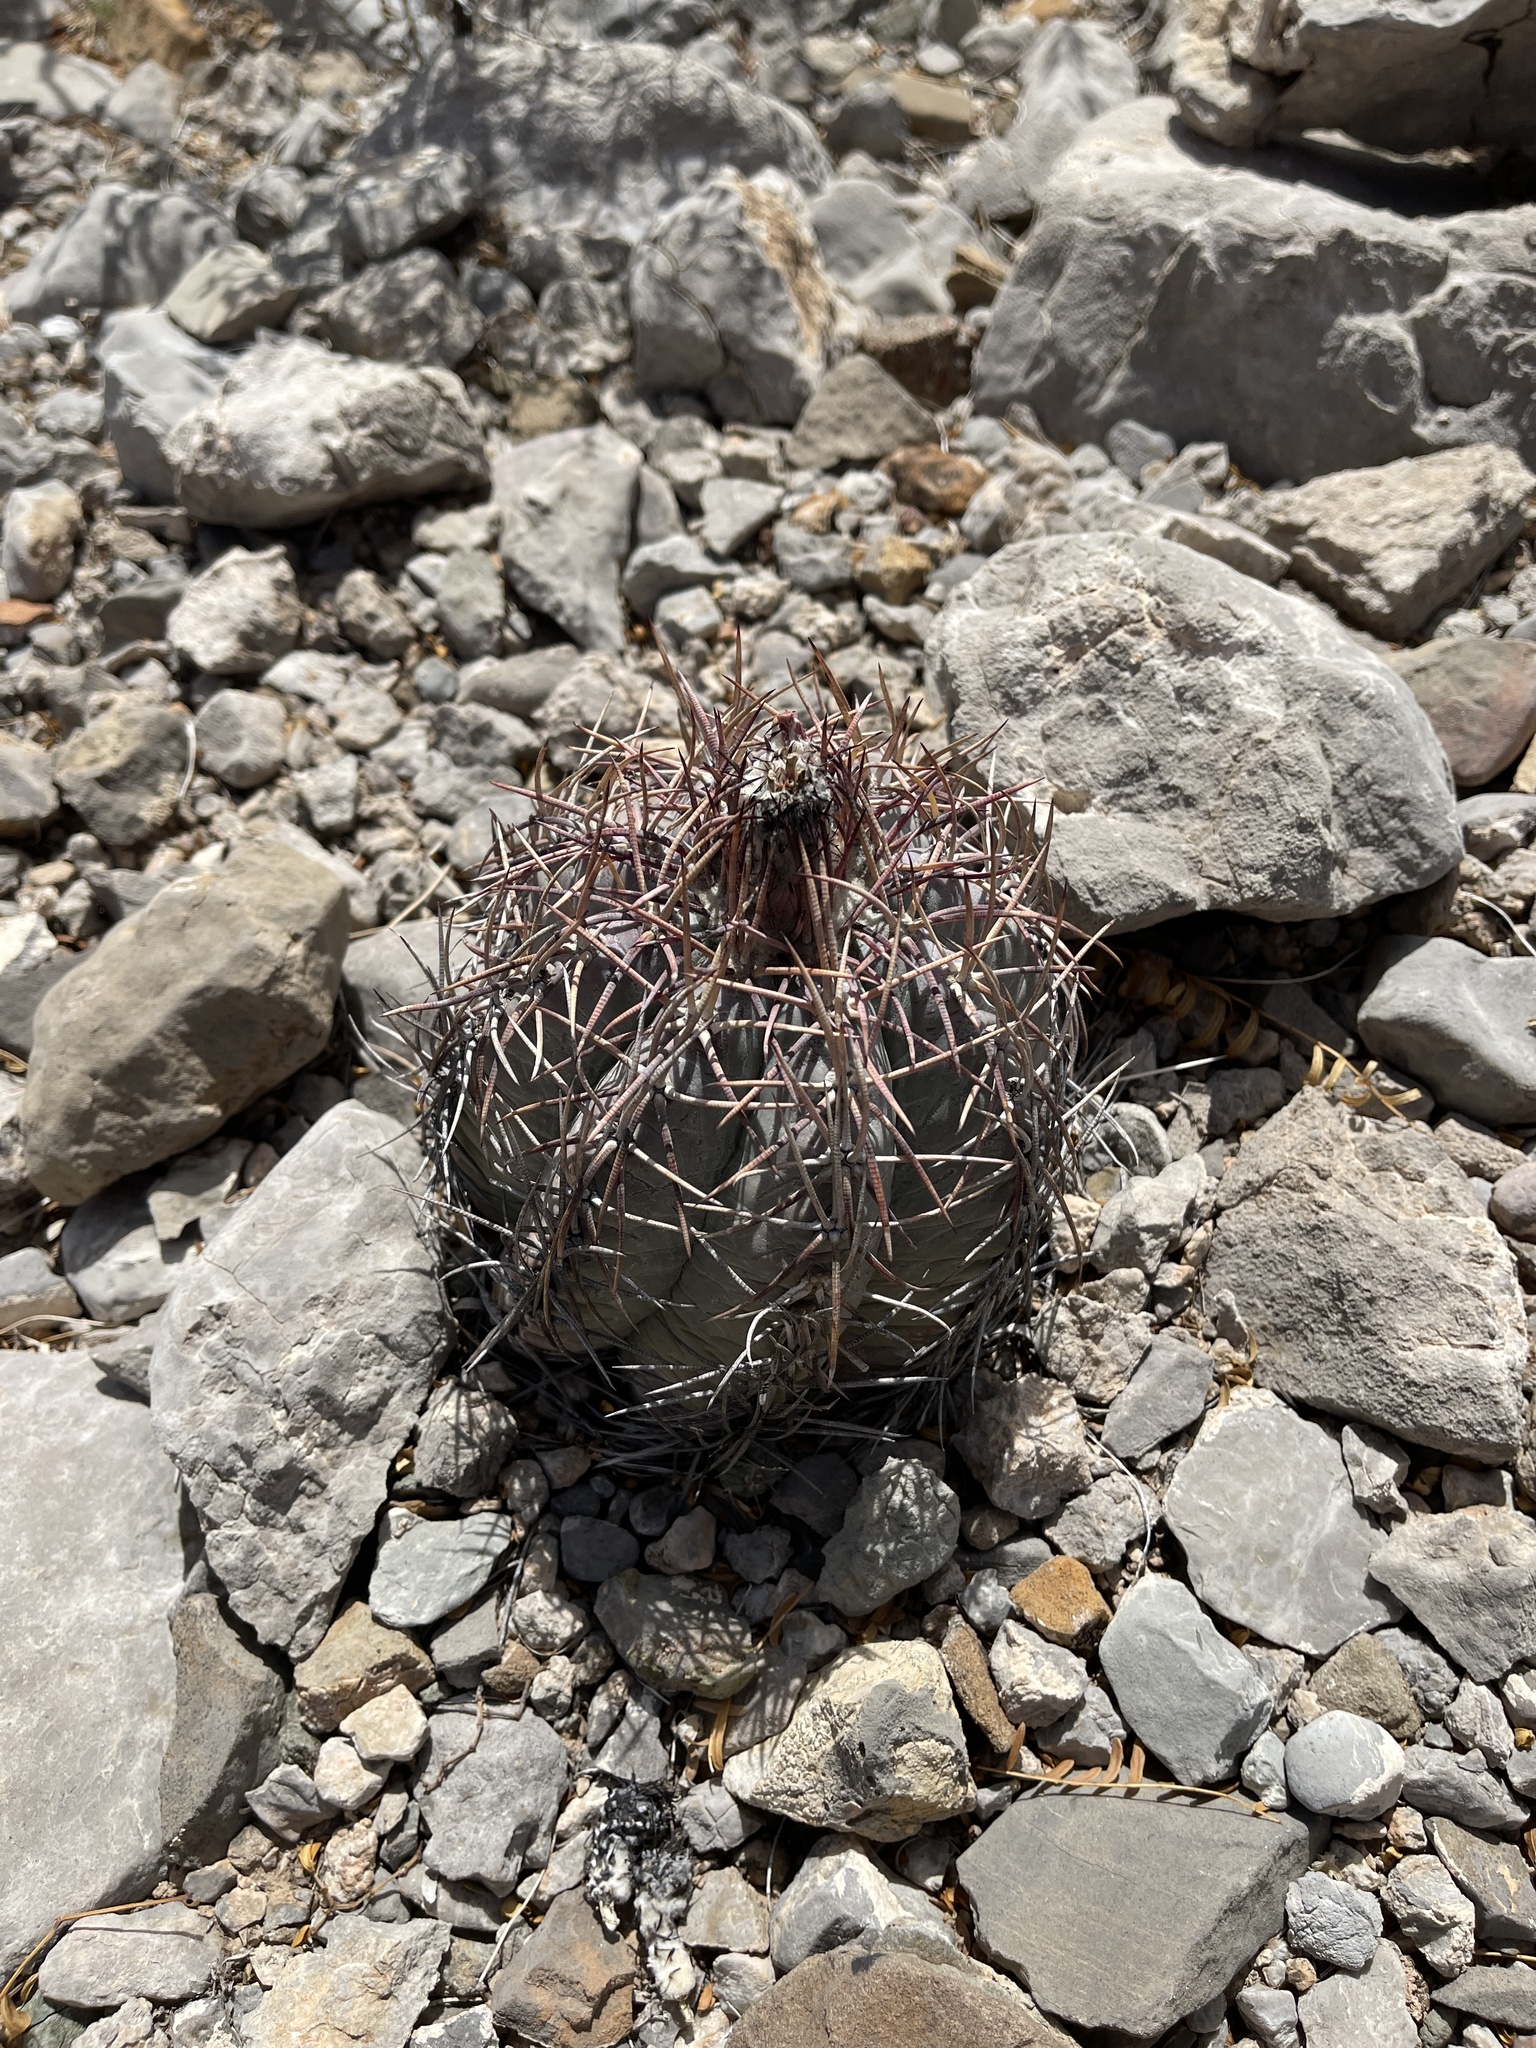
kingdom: Plantae
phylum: Tracheophyta
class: Magnoliopsida
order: Caryophyllales
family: Cactaceae
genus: Echinocactus
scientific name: Echinocactus horizonthalonius
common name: Devilshead
